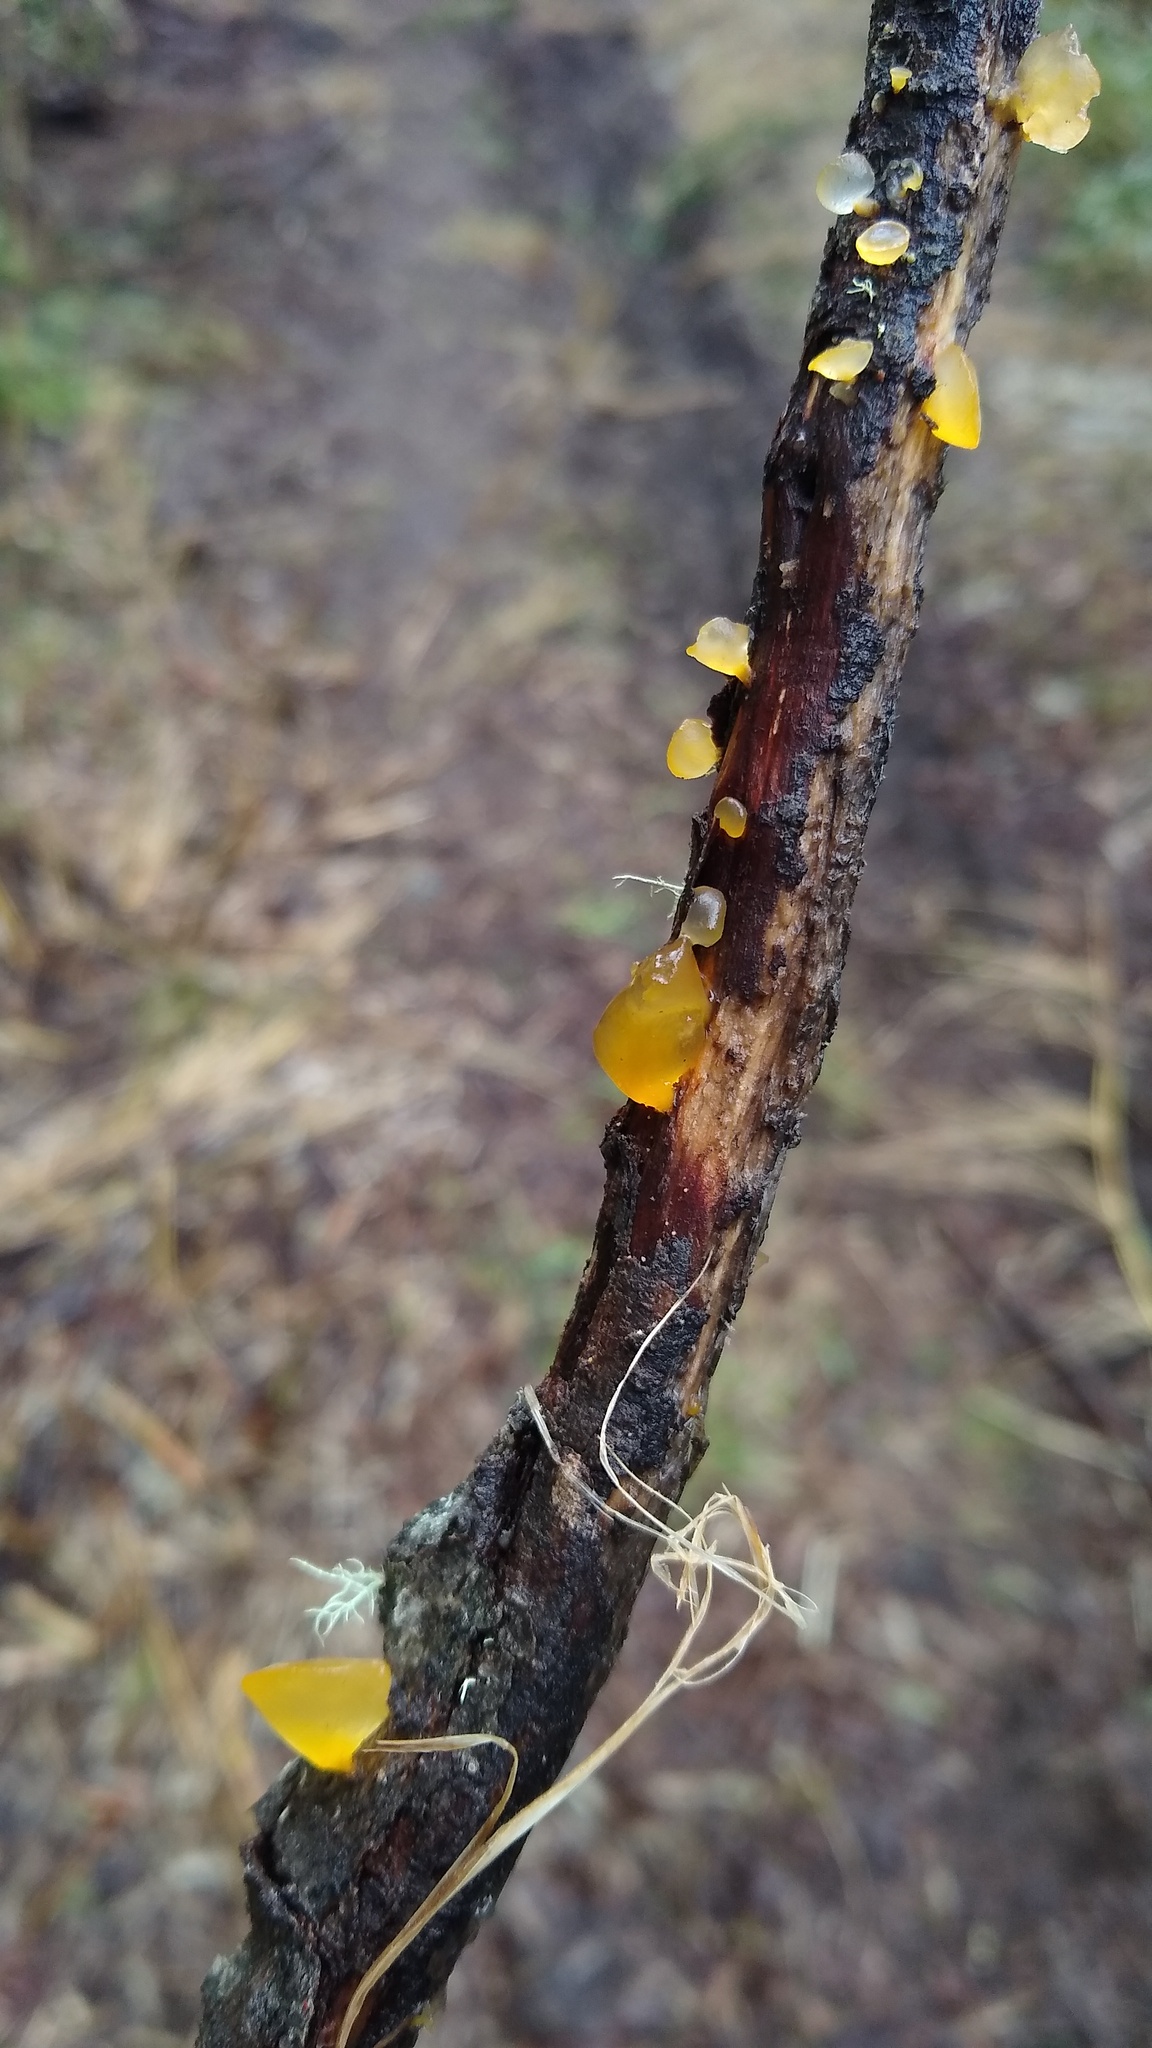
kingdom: Fungi
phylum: Basidiomycota
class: Dacrymycetes
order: Dacrymycetales
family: Dacrymycetaceae
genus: Guepiniopsis
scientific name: Guepiniopsis alpina
